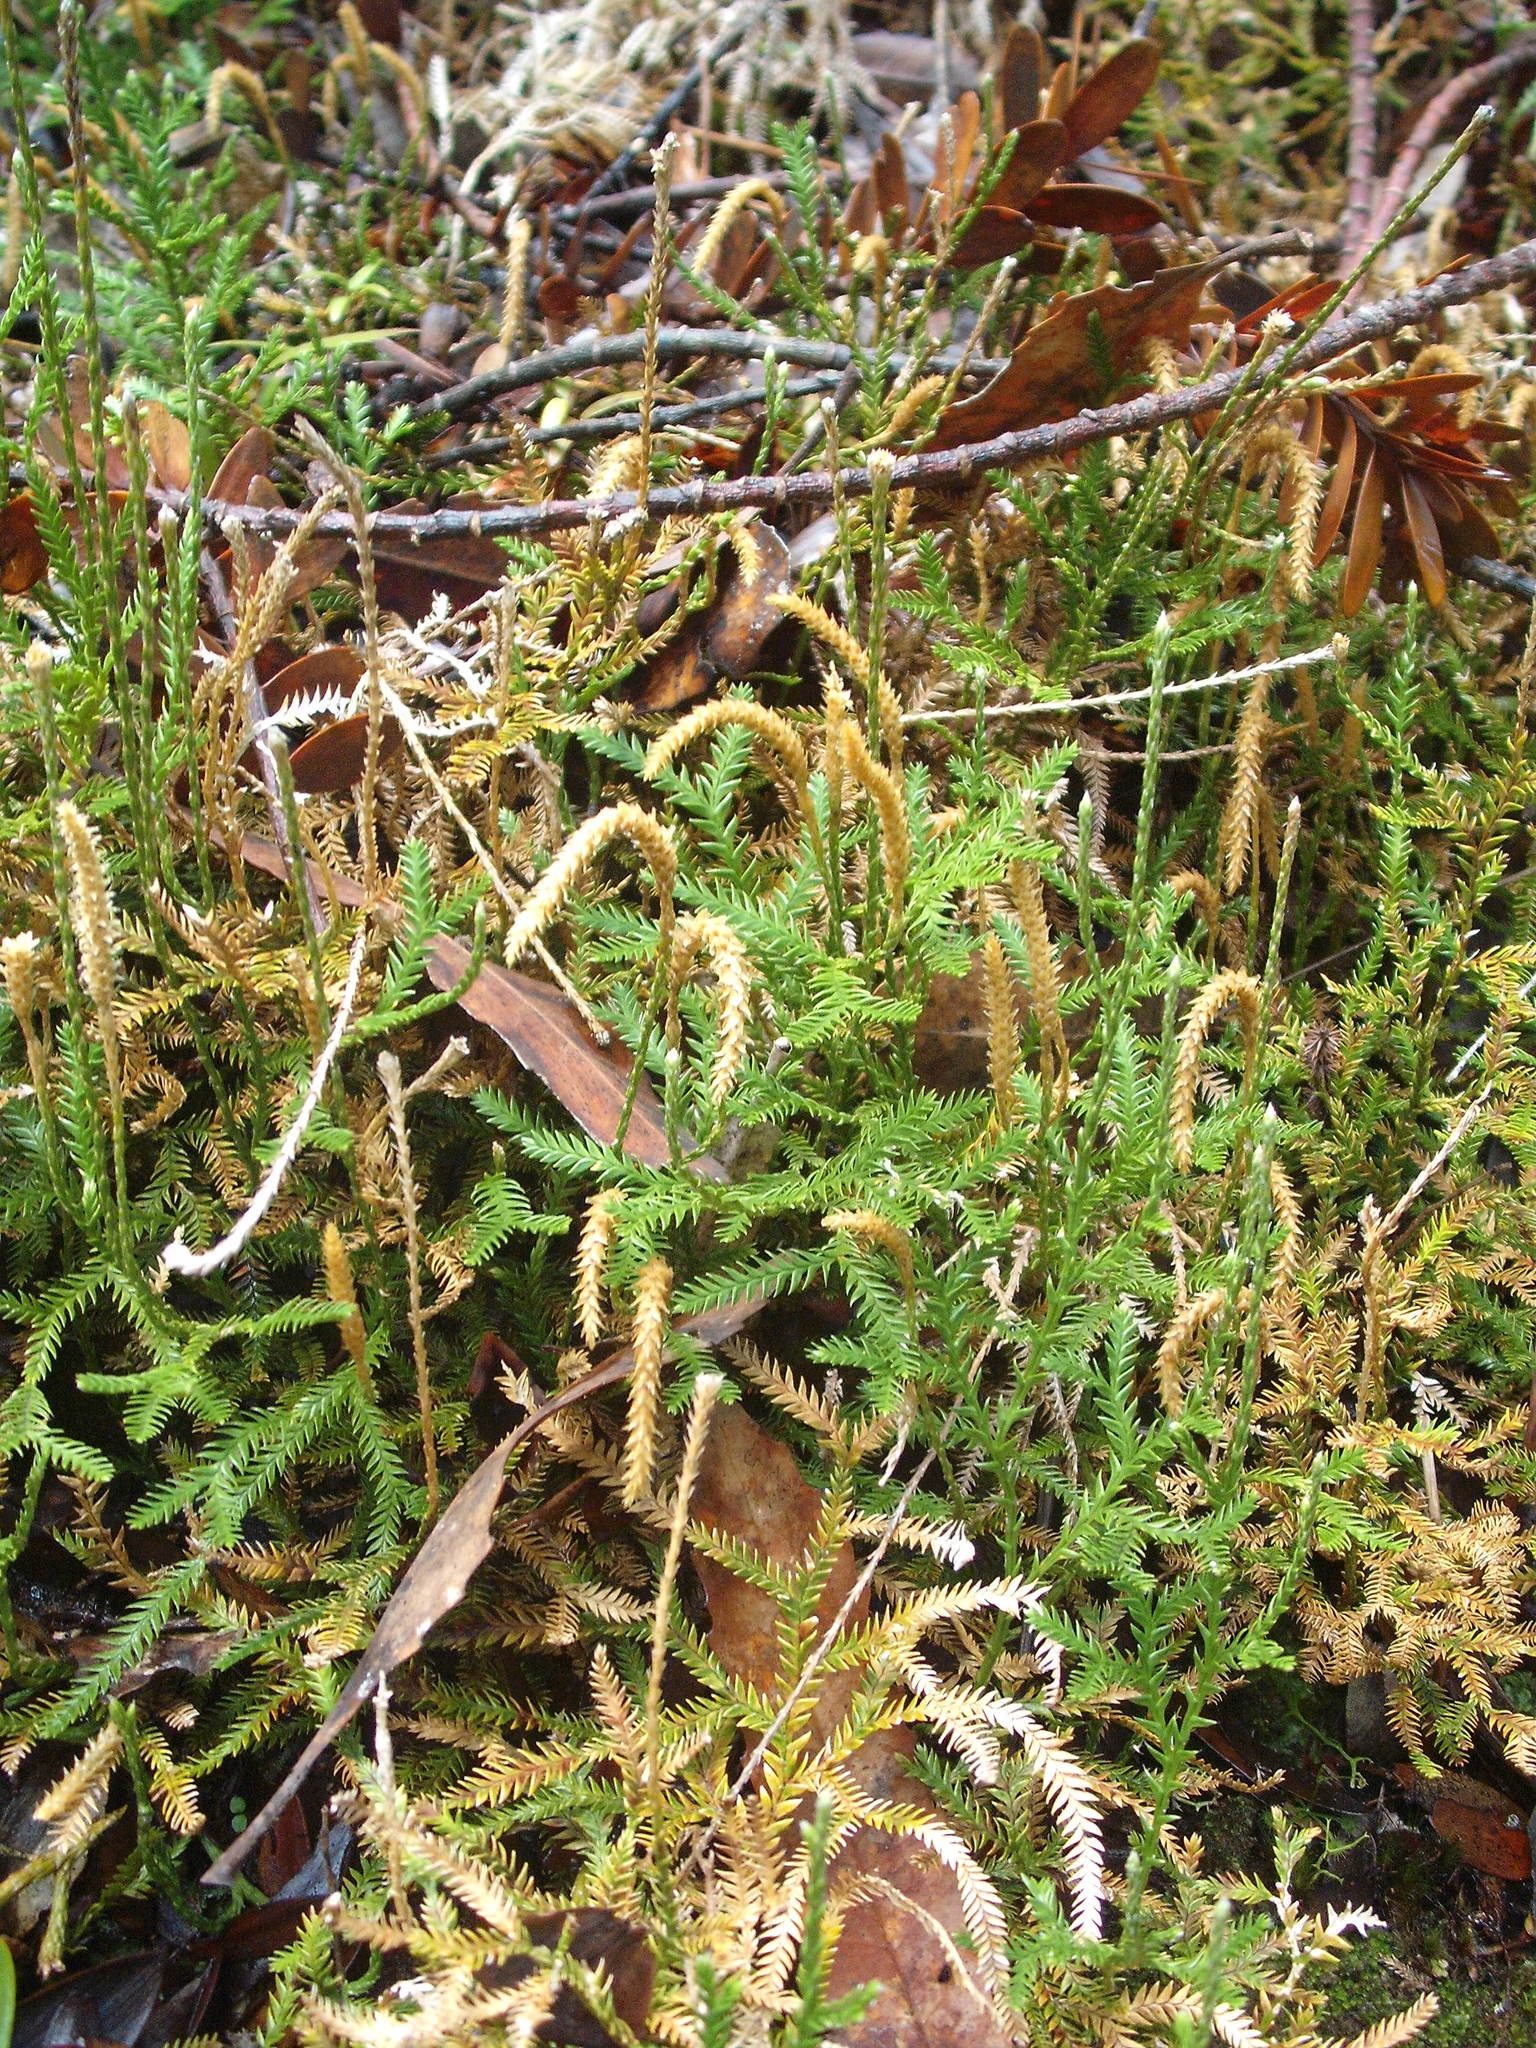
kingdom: Plantae
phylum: Tracheophyta
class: Lycopodiopsida
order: Lycopodiales
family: Lycopodiaceae
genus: Diphasium
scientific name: Diphasium scariosum
